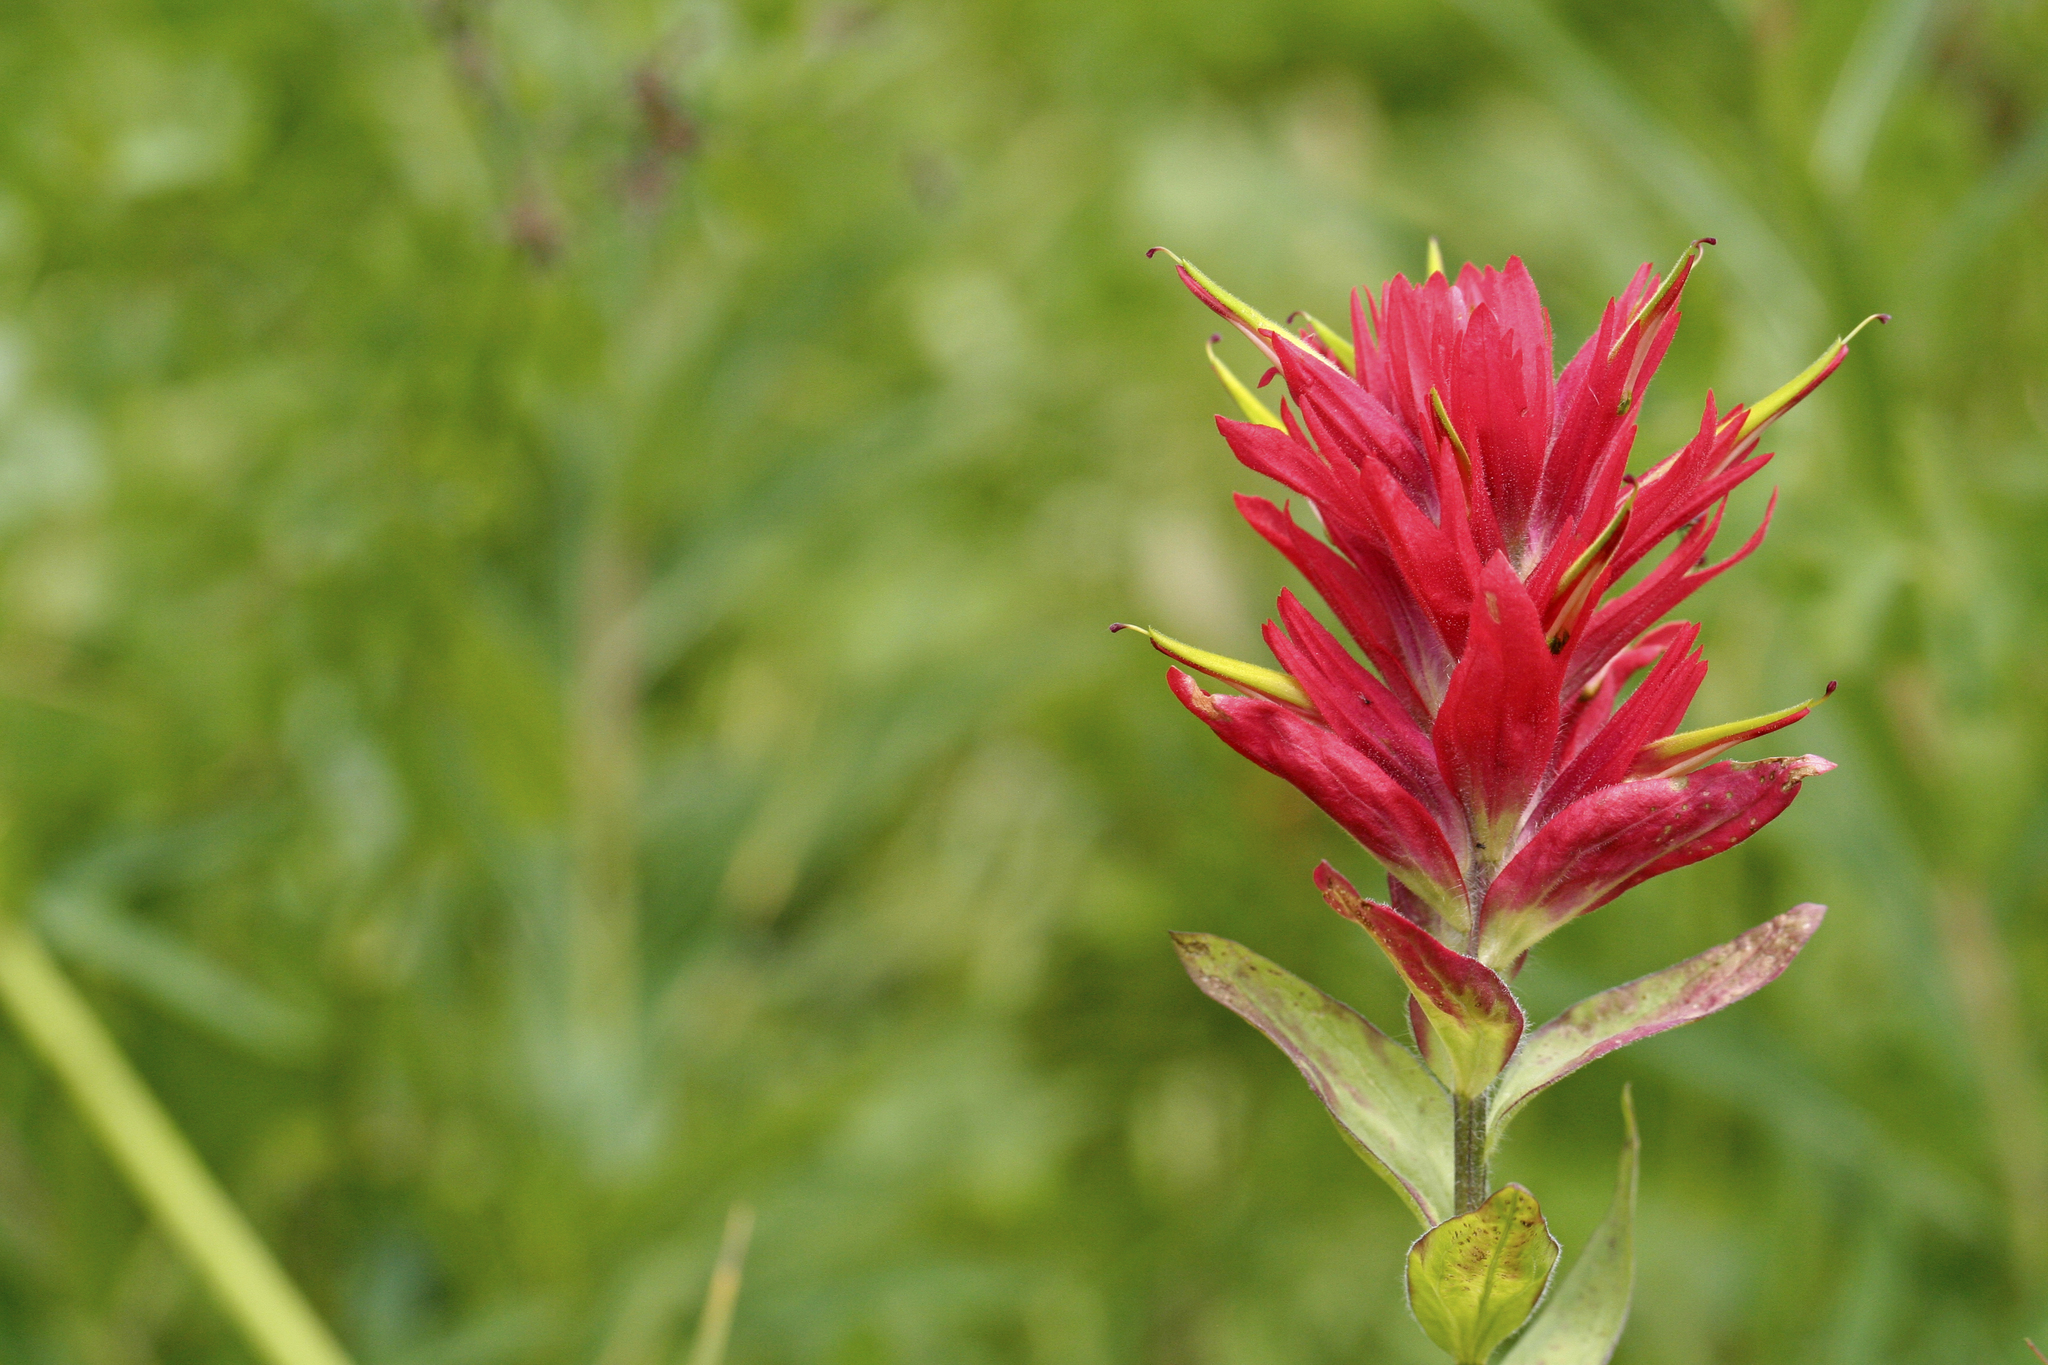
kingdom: Plantae
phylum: Tracheophyta
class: Magnoliopsida
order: Lamiales
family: Orobanchaceae
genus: Castilleja
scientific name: Castilleja miniata
